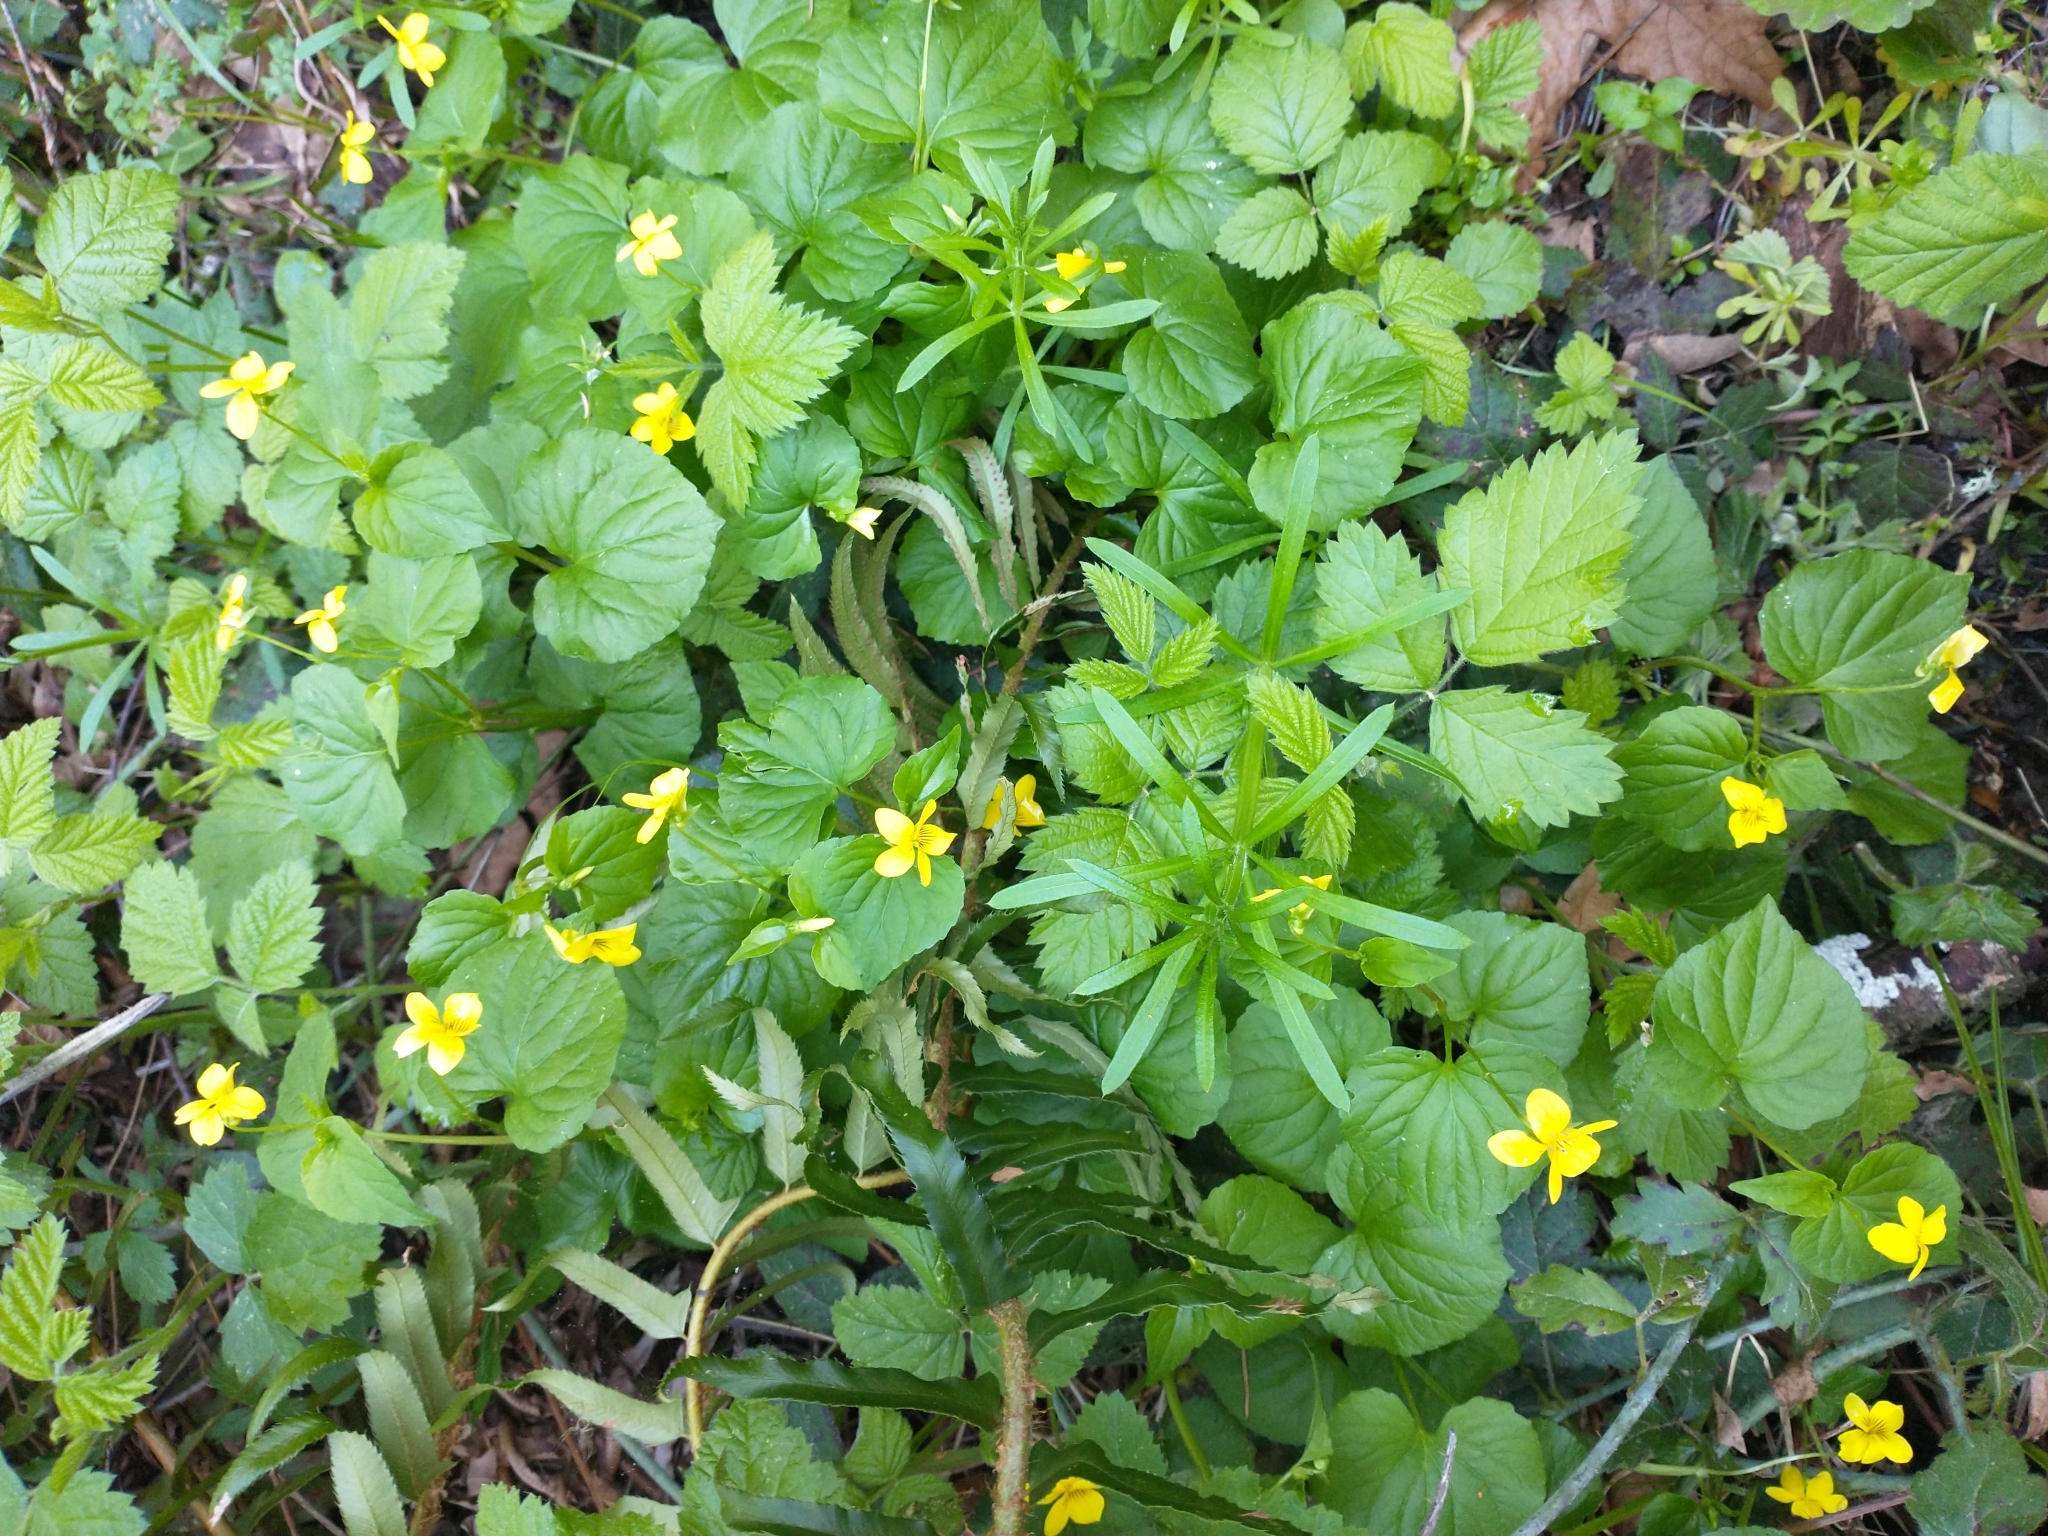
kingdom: Plantae
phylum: Tracheophyta
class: Magnoliopsida
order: Malpighiales
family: Violaceae
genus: Viola
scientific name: Viola glabella
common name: Stream violet
